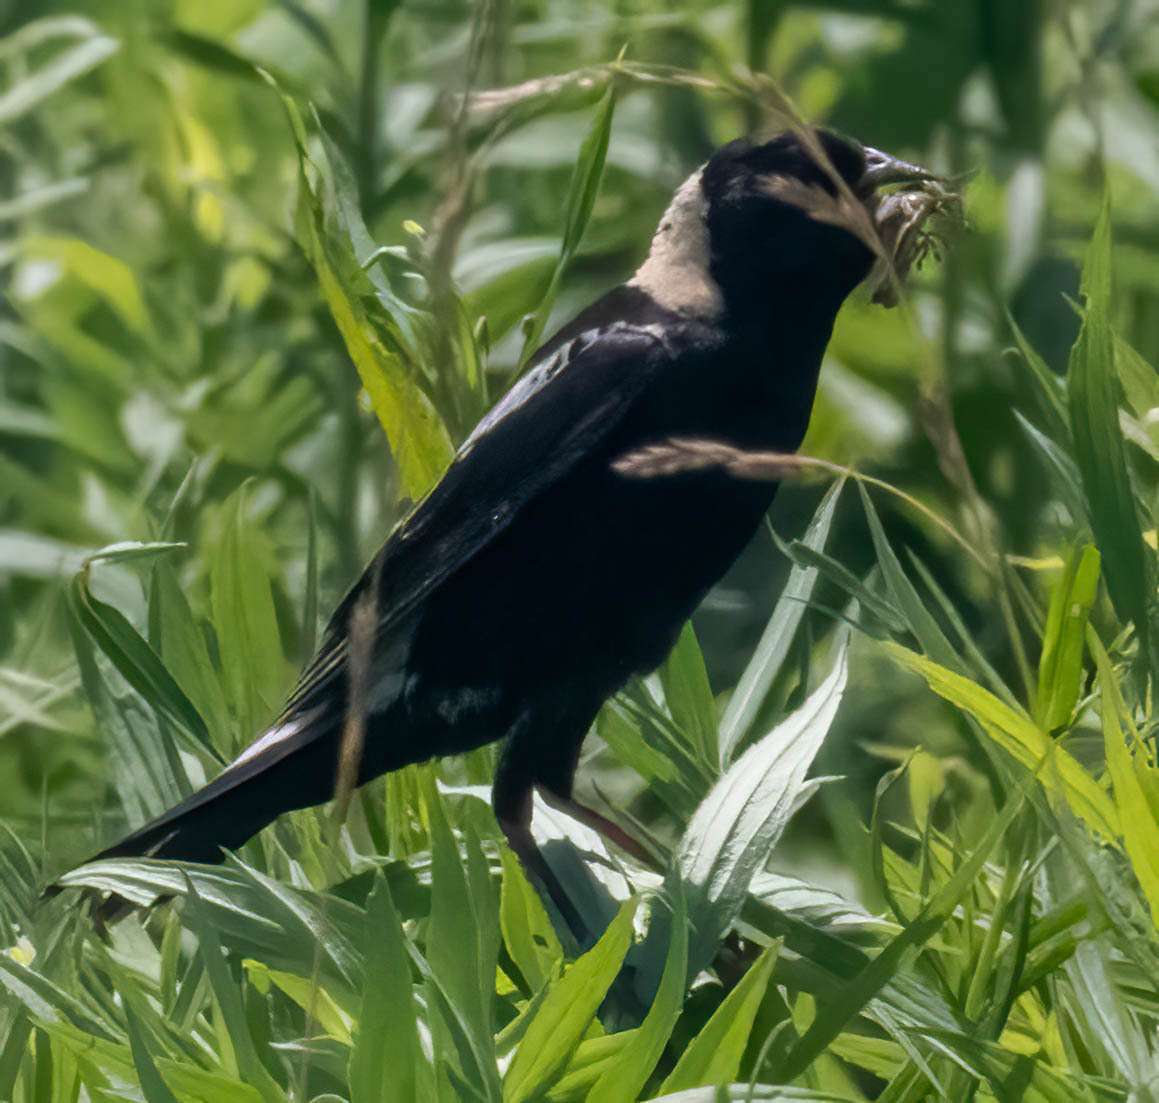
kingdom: Animalia
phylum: Chordata
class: Aves
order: Passeriformes
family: Icteridae
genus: Dolichonyx
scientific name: Dolichonyx oryzivorus
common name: Bobolink
